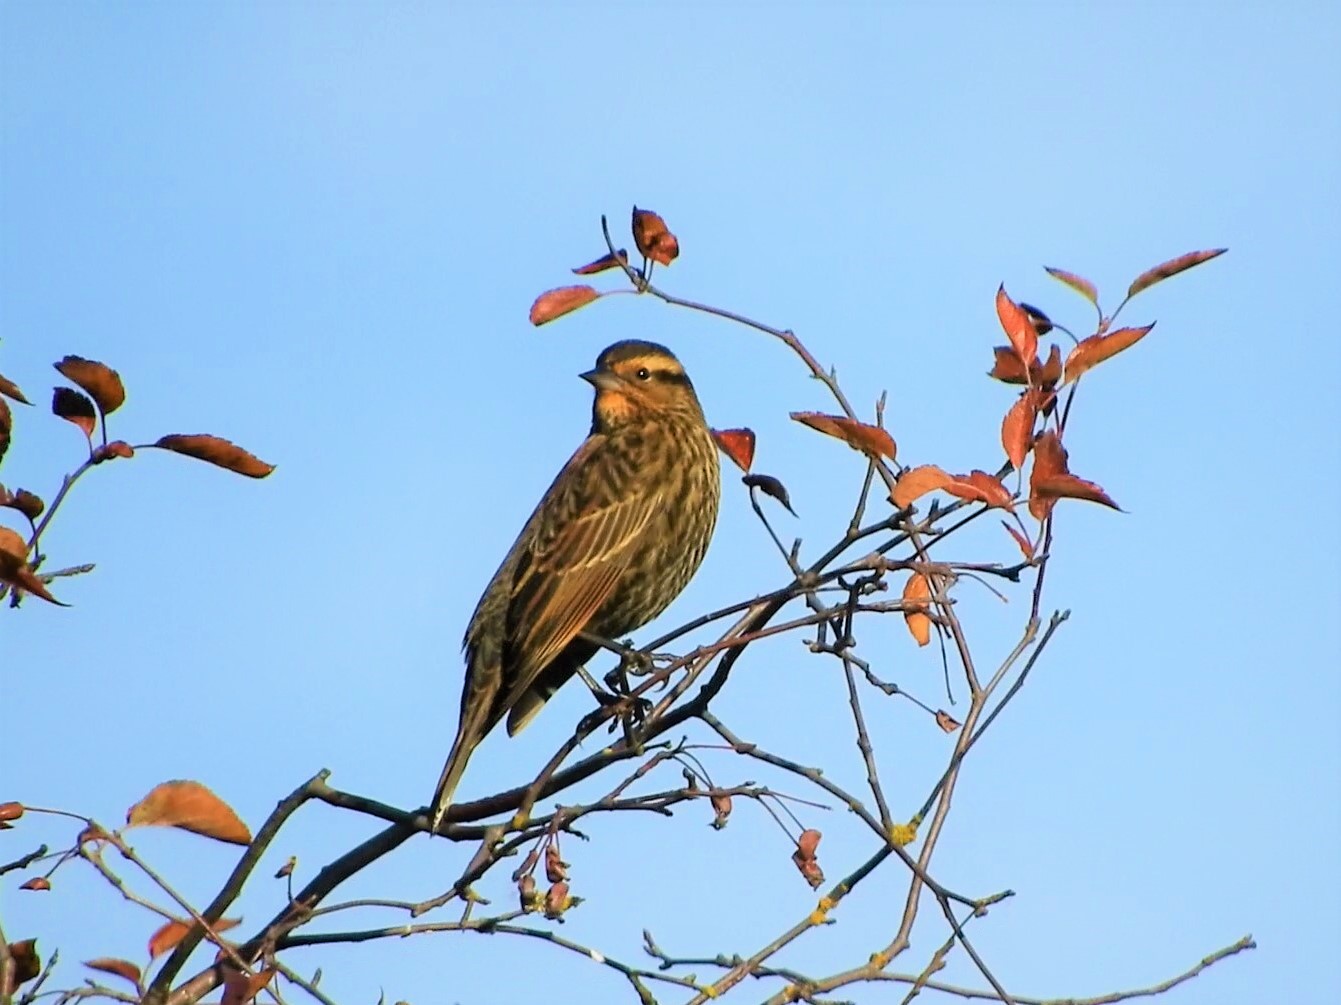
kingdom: Animalia
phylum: Chordata
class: Aves
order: Passeriformes
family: Icteridae
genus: Agelaius
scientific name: Agelaius phoeniceus
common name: Red-winged blackbird
